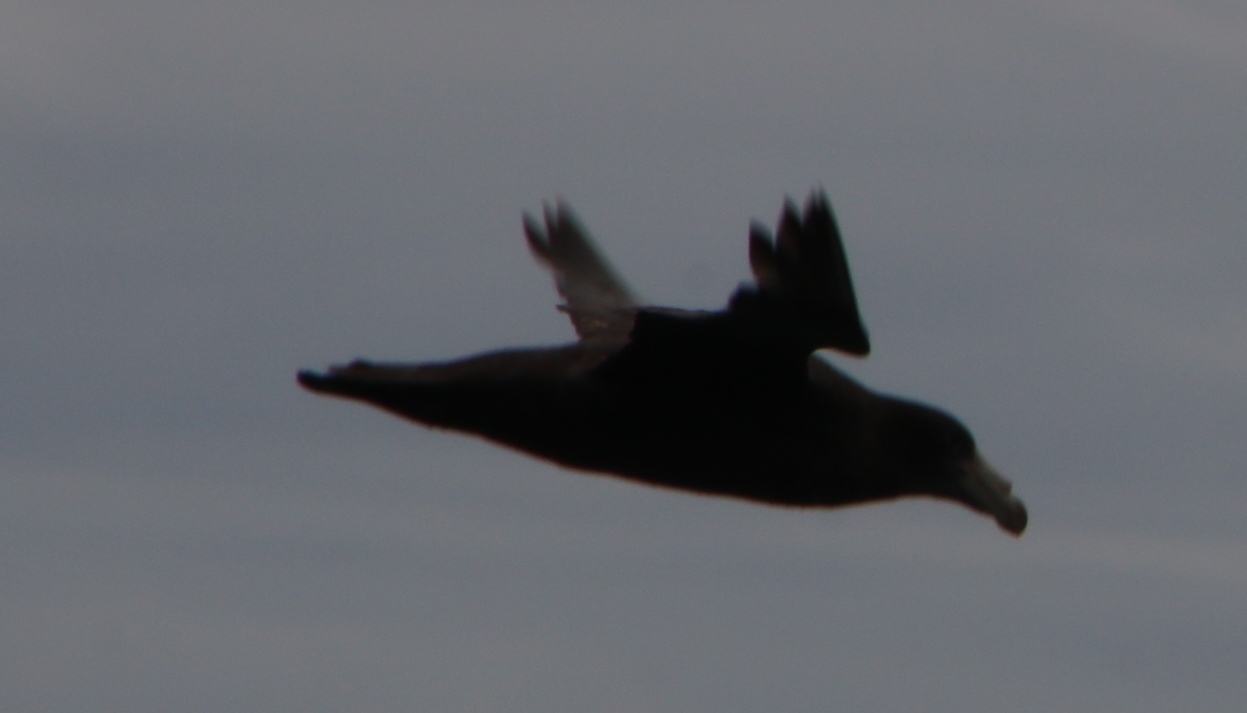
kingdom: Animalia
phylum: Chordata
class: Aves
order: Procellariiformes
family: Procellariidae
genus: Macronectes
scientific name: Macronectes halli
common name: Northern giant petrel
